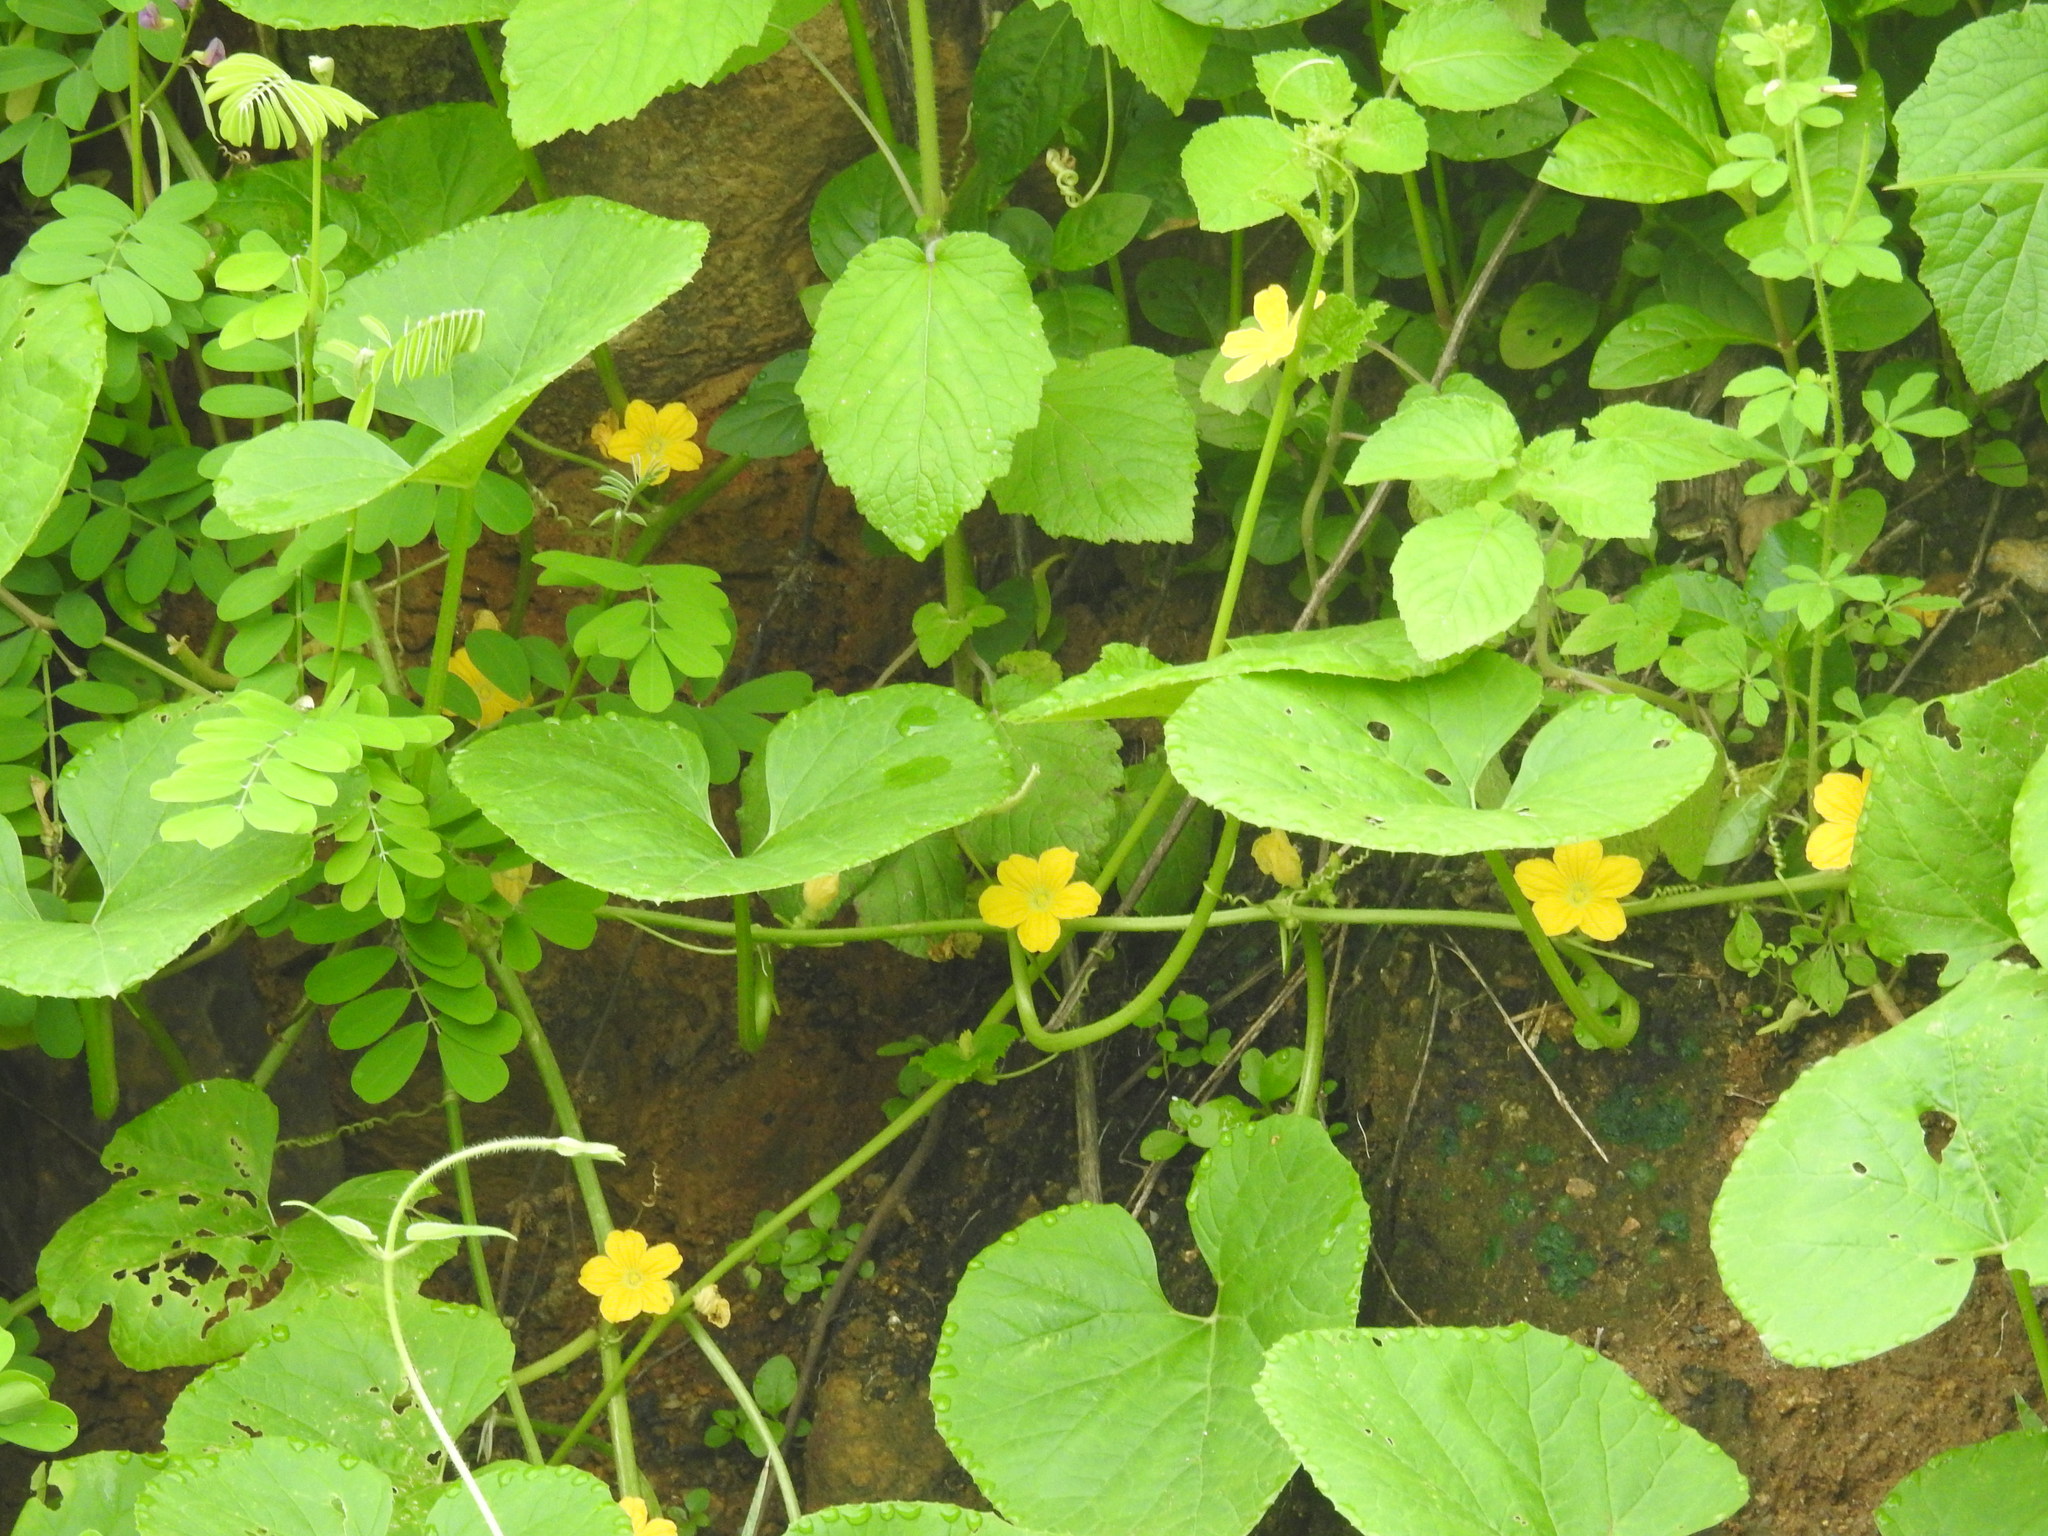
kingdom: Plantae
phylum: Tracheophyta
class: Magnoliopsida
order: Cucurbitales
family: Cucurbitaceae
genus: Cucumis
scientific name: Cucumis melo
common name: Melon
